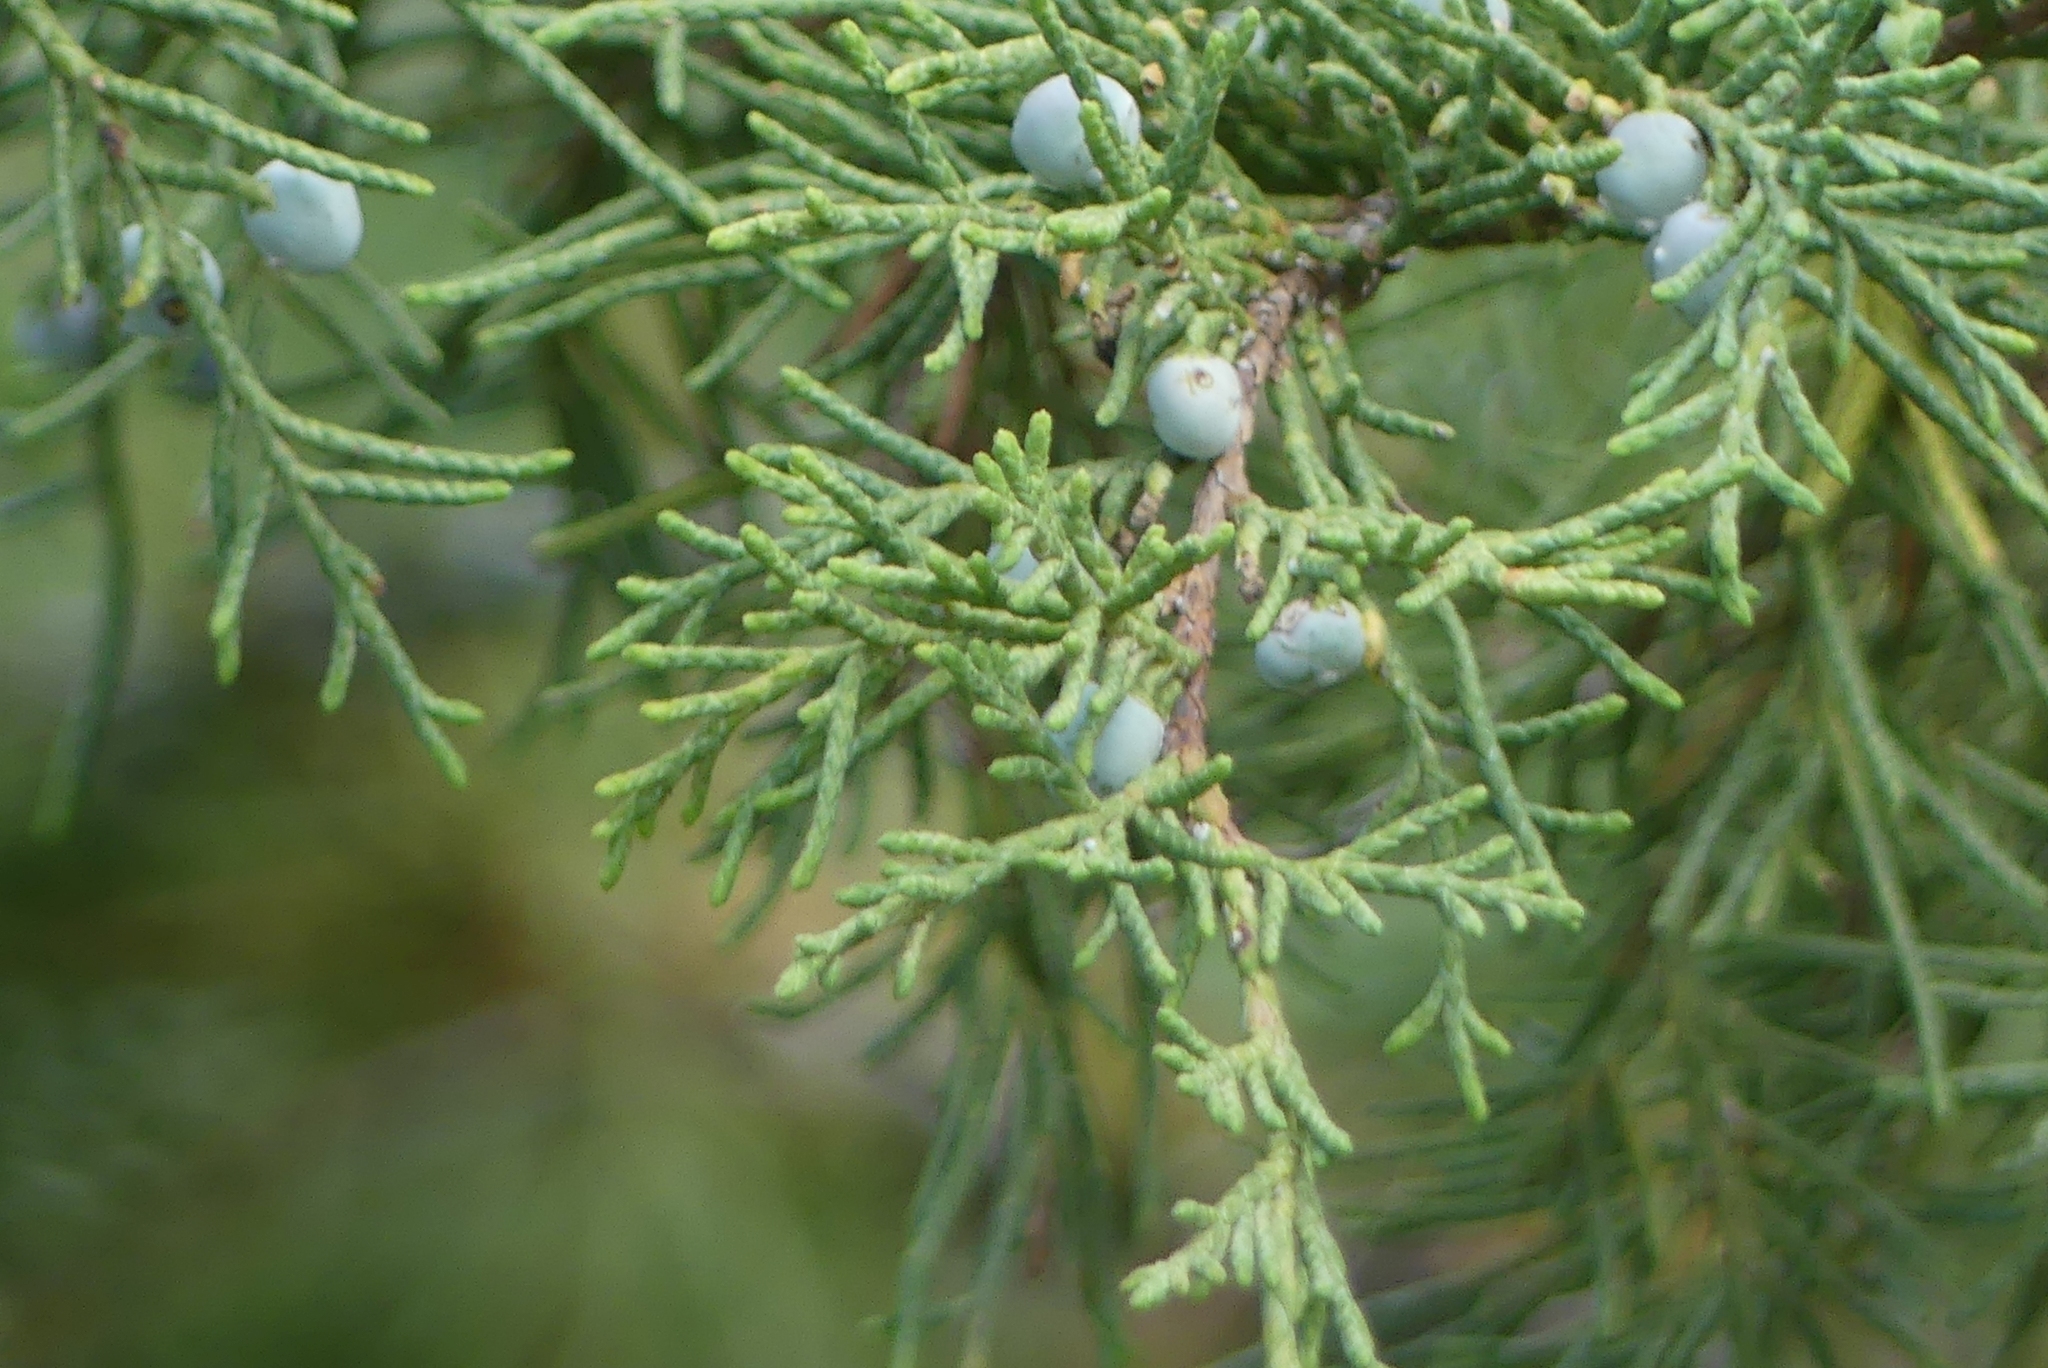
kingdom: Plantae
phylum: Tracheophyta
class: Pinopsida
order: Pinales
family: Cupressaceae
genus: Juniperus
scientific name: Juniperus scopulorum
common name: Rocky mountain juniper
